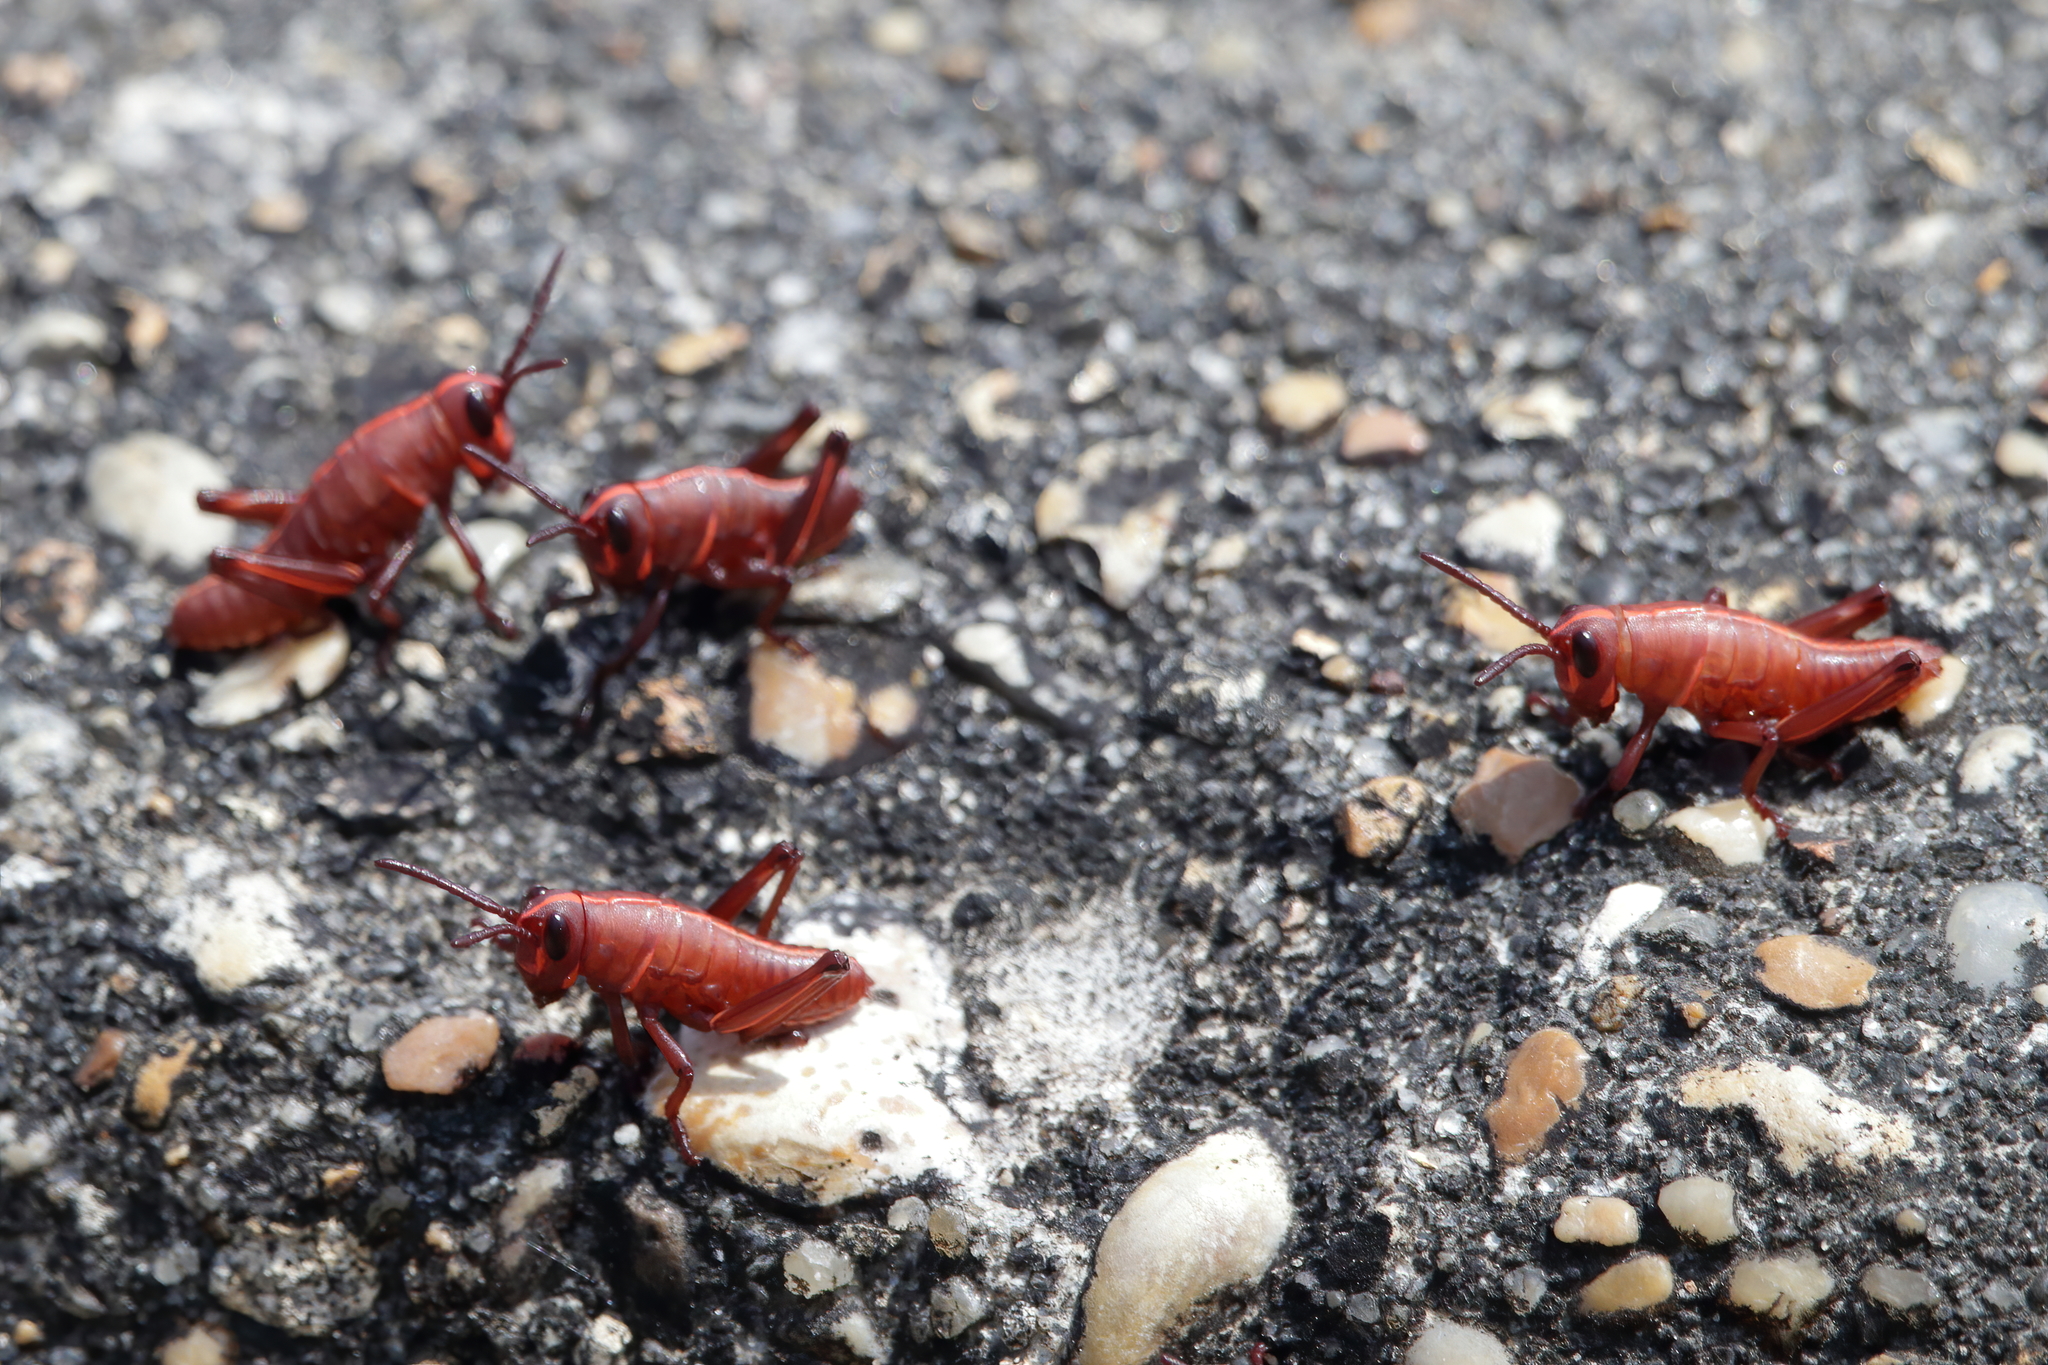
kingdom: Animalia
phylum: Arthropoda
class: Insecta
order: Orthoptera
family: Romaleidae
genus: Romalea
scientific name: Romalea microptera
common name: Eastern lubber grasshopper
